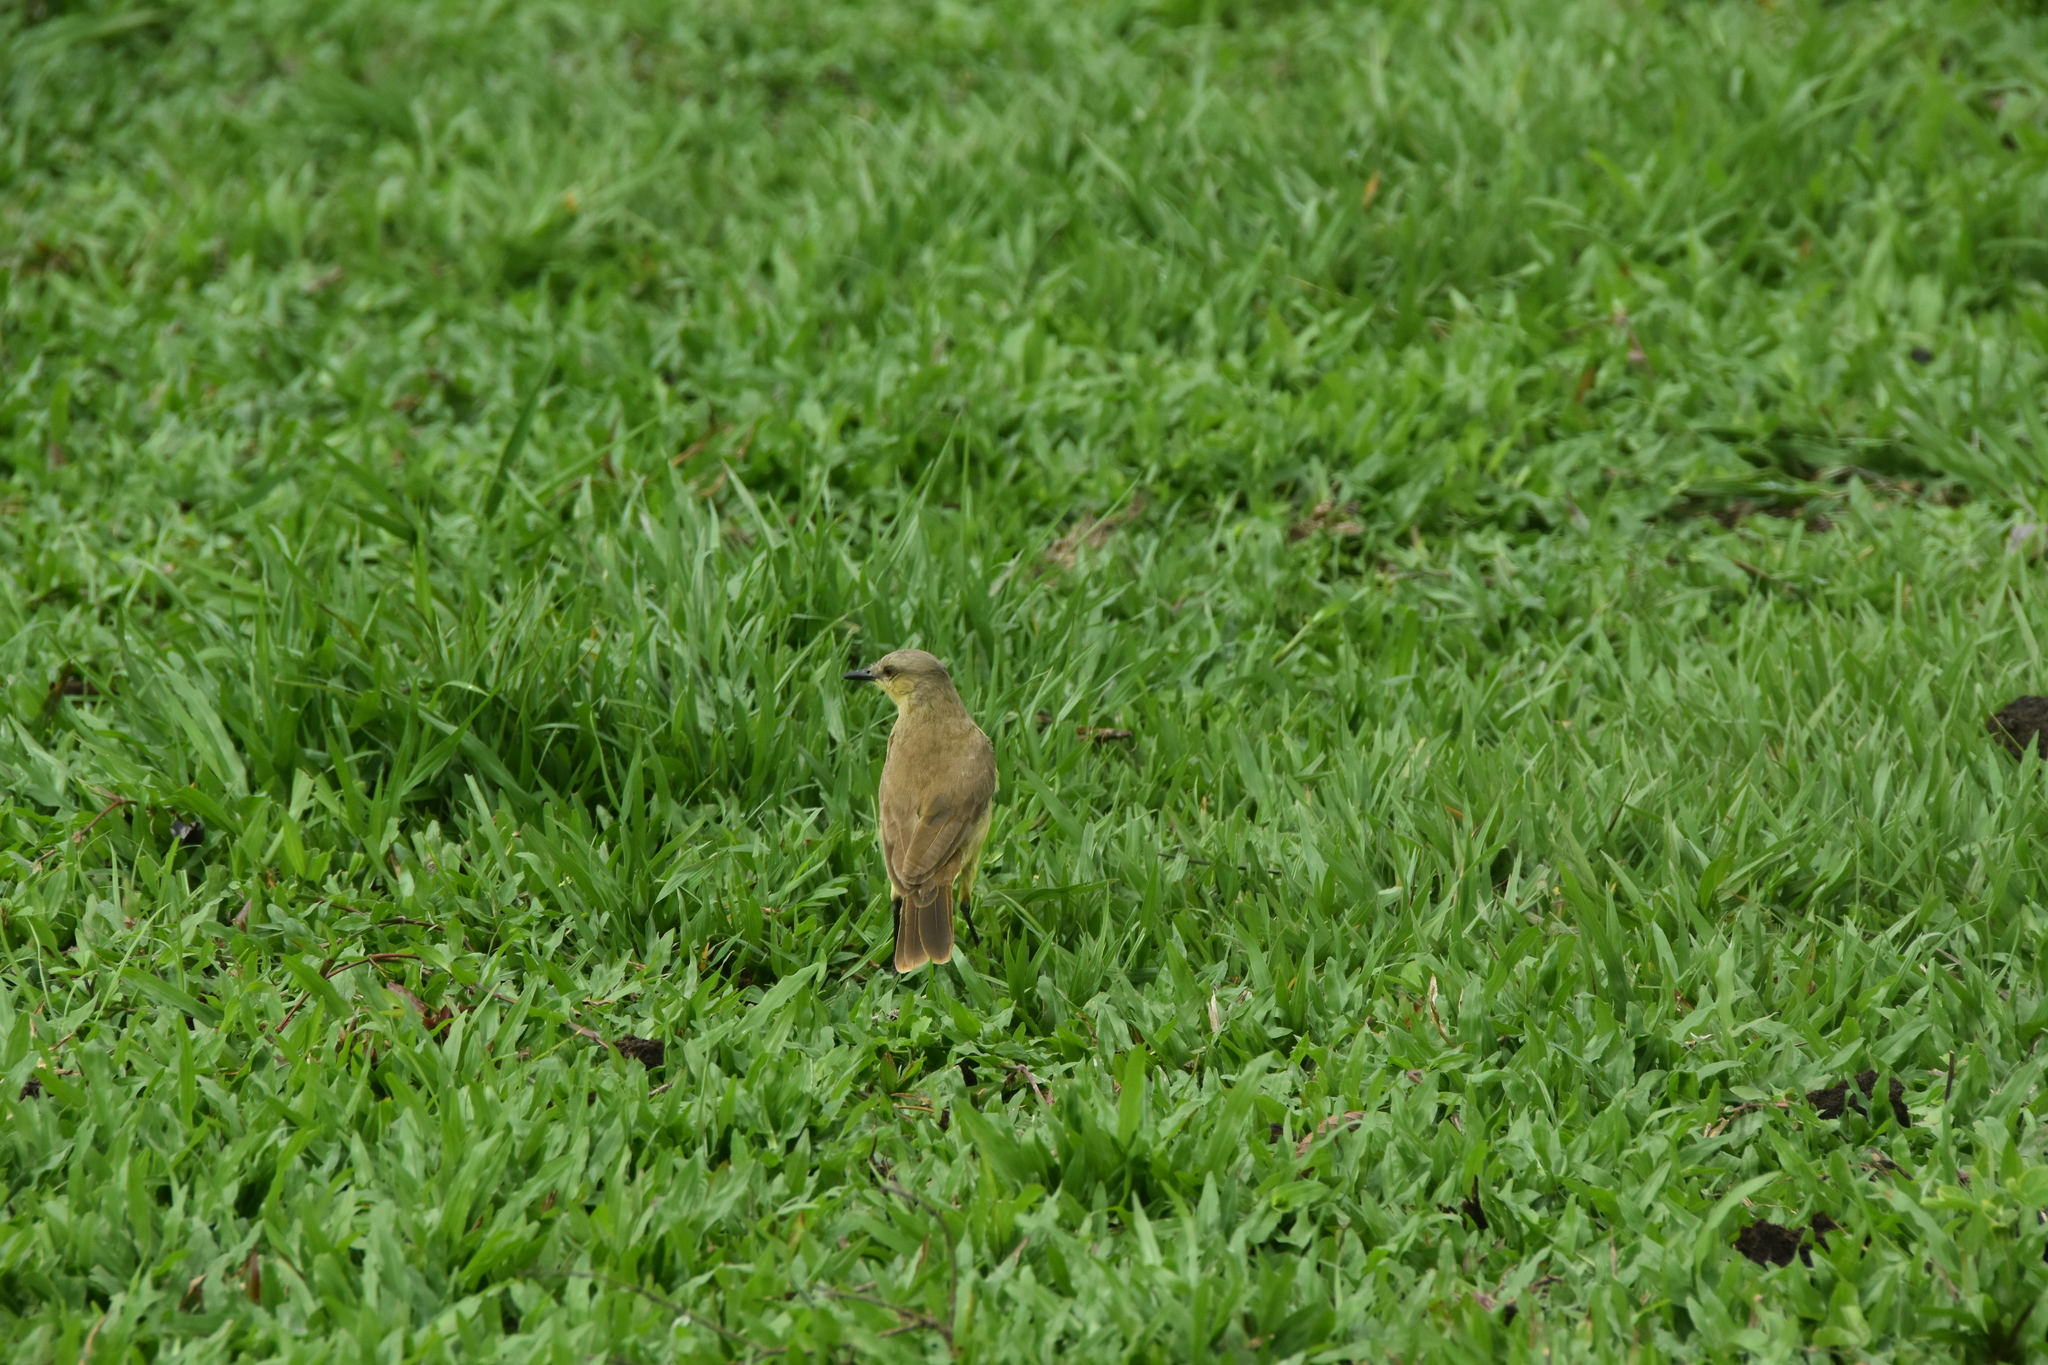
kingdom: Animalia
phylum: Chordata
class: Aves
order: Passeriformes
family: Tyrannidae
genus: Machetornis
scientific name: Machetornis rixosa
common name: Cattle tyrant
